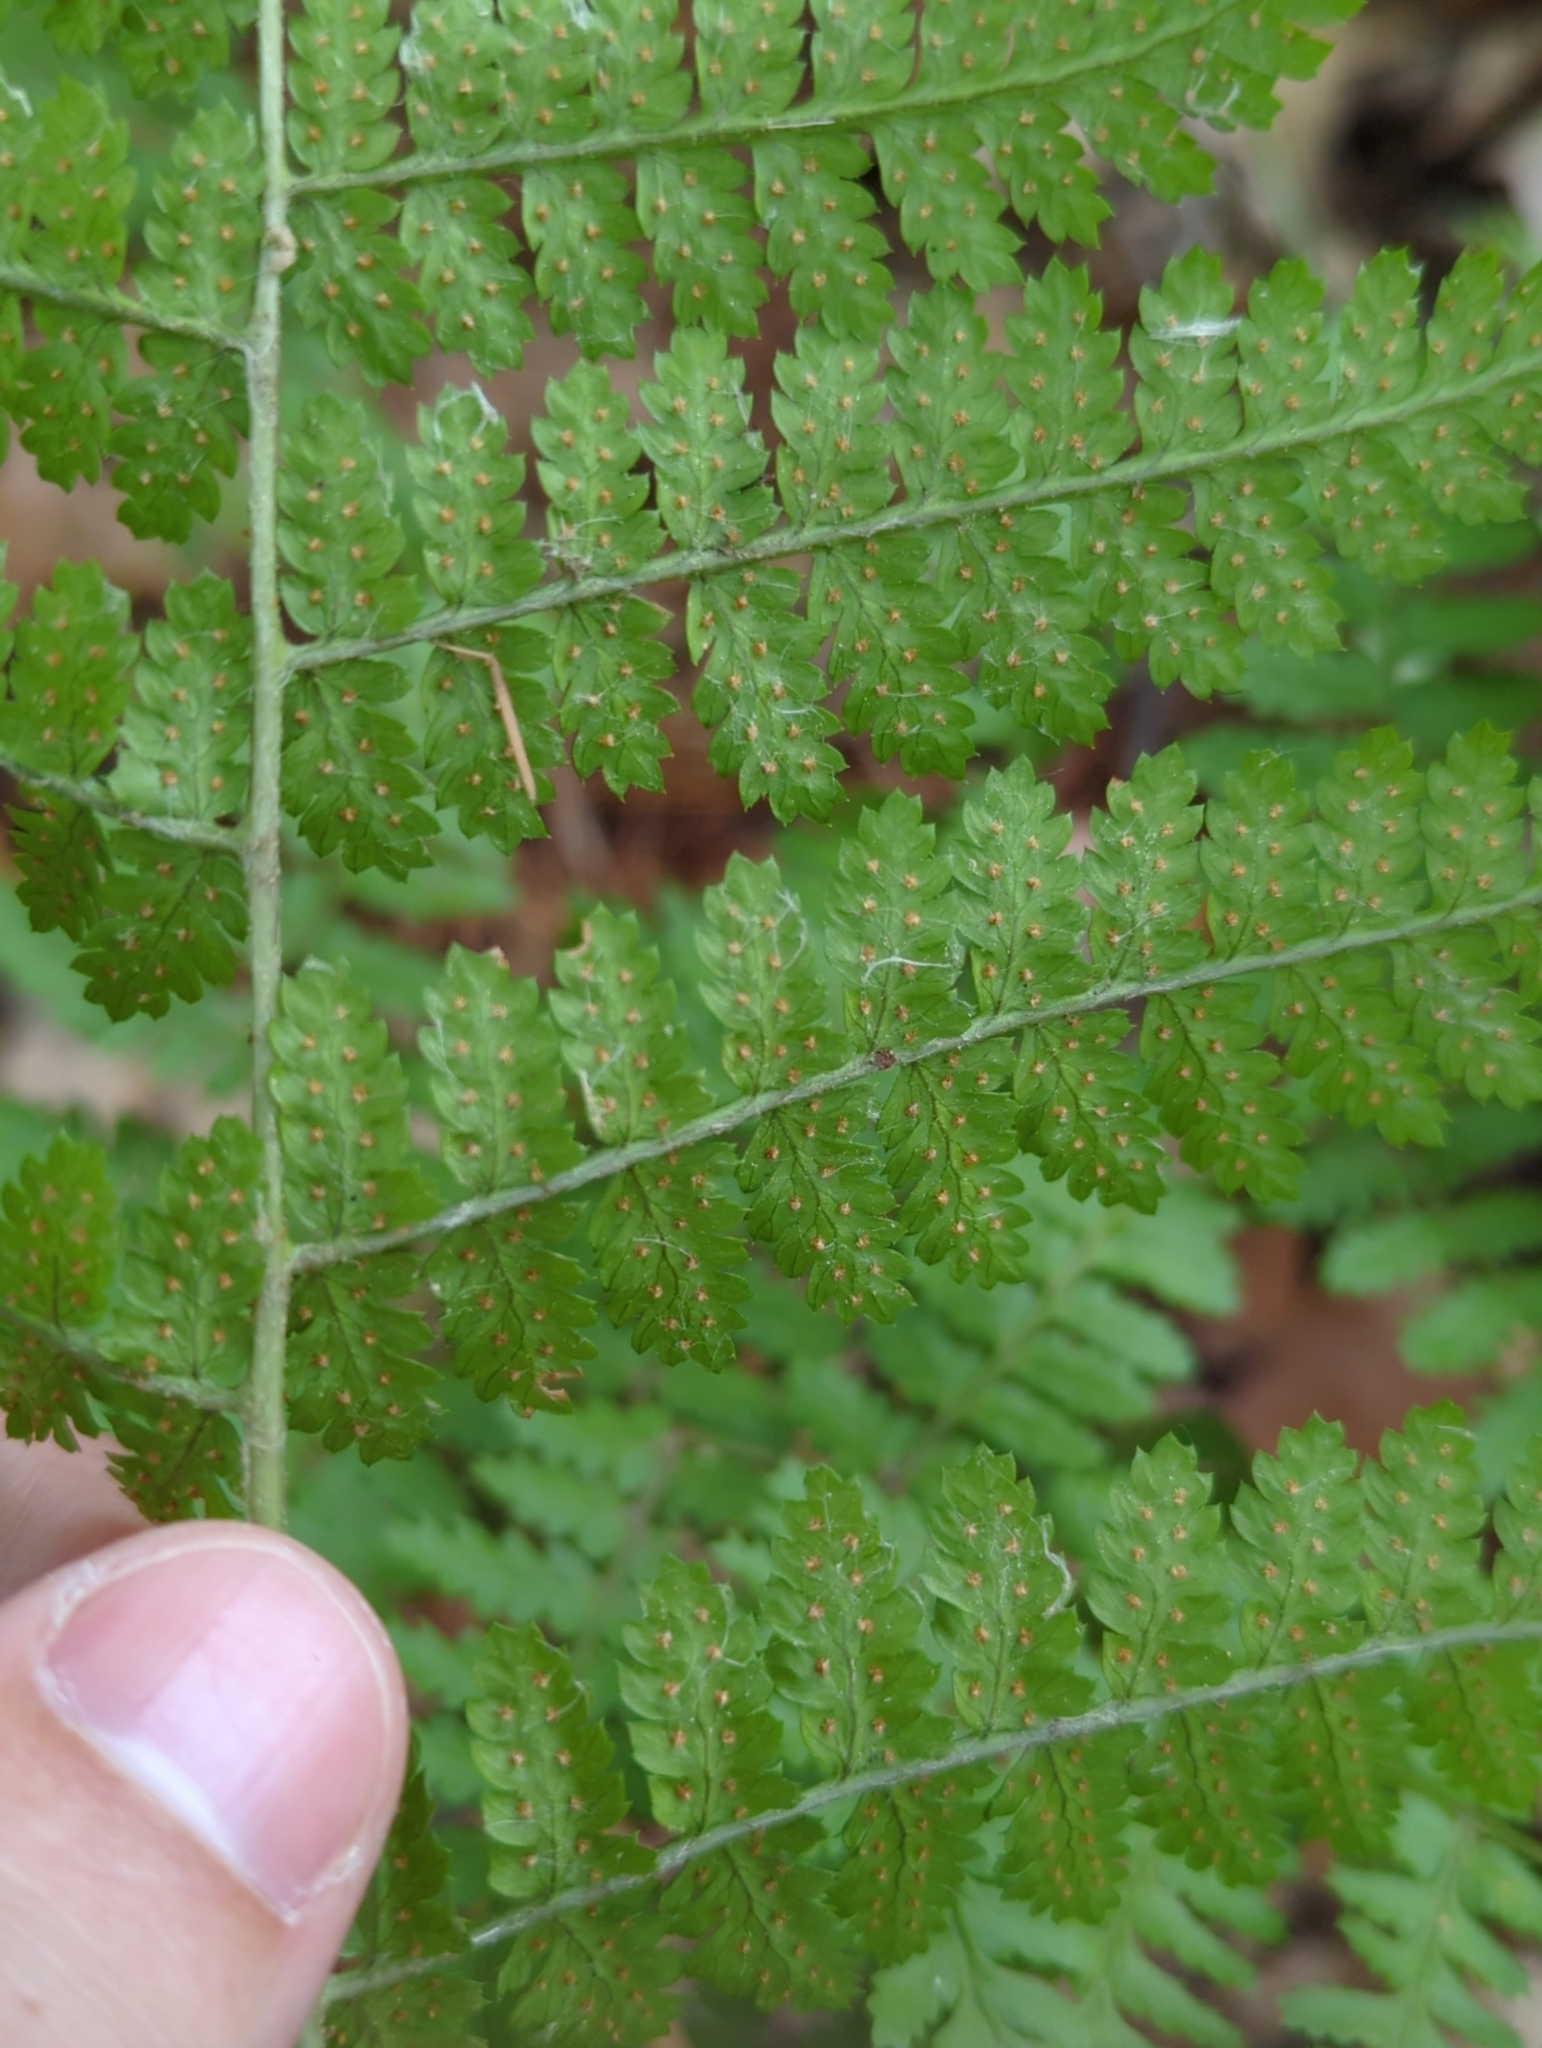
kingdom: Plantae
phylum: Tracheophyta
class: Polypodiopsida
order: Polypodiales
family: Dryopteridaceae
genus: Dryopteris
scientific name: Dryopteris intermedia
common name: Evergreen wood fern
